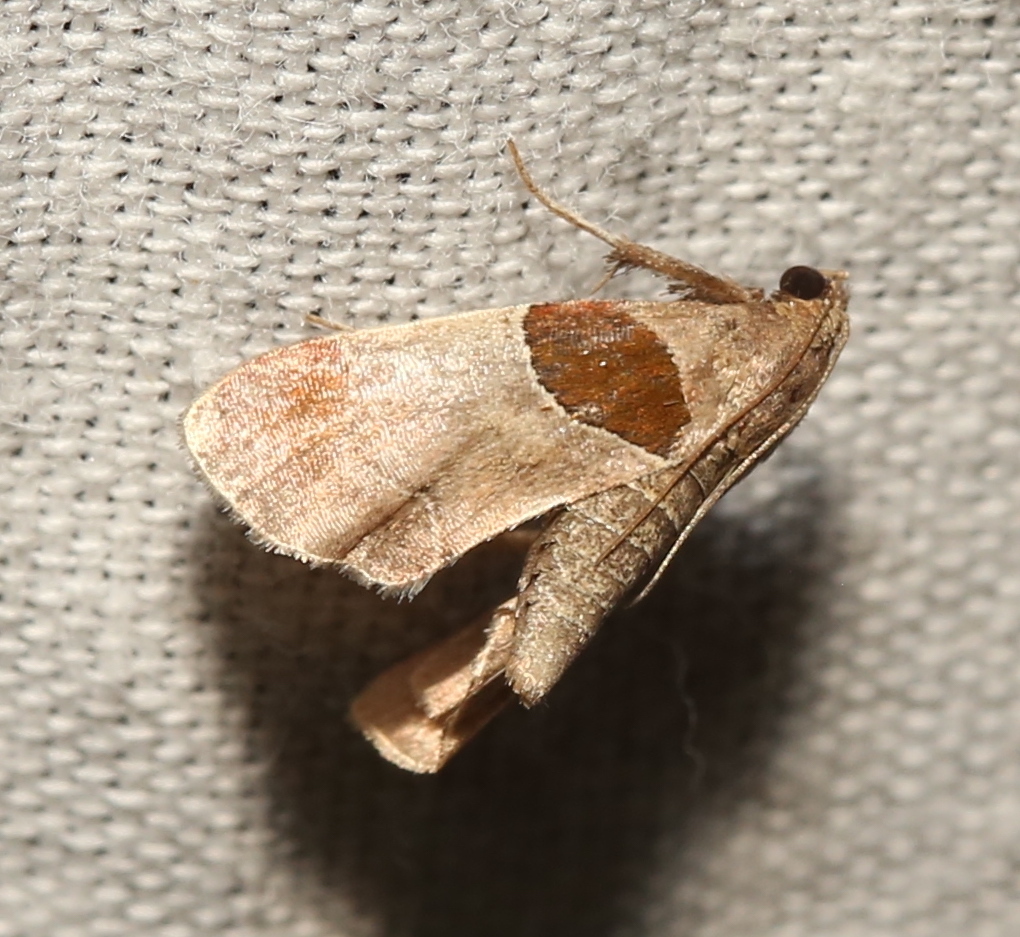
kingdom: Animalia
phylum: Arthropoda
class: Insecta
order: Lepidoptera
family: Pyralidae
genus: Tosale
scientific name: Tosale oviplagalis
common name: Dimorphic tosale moth
